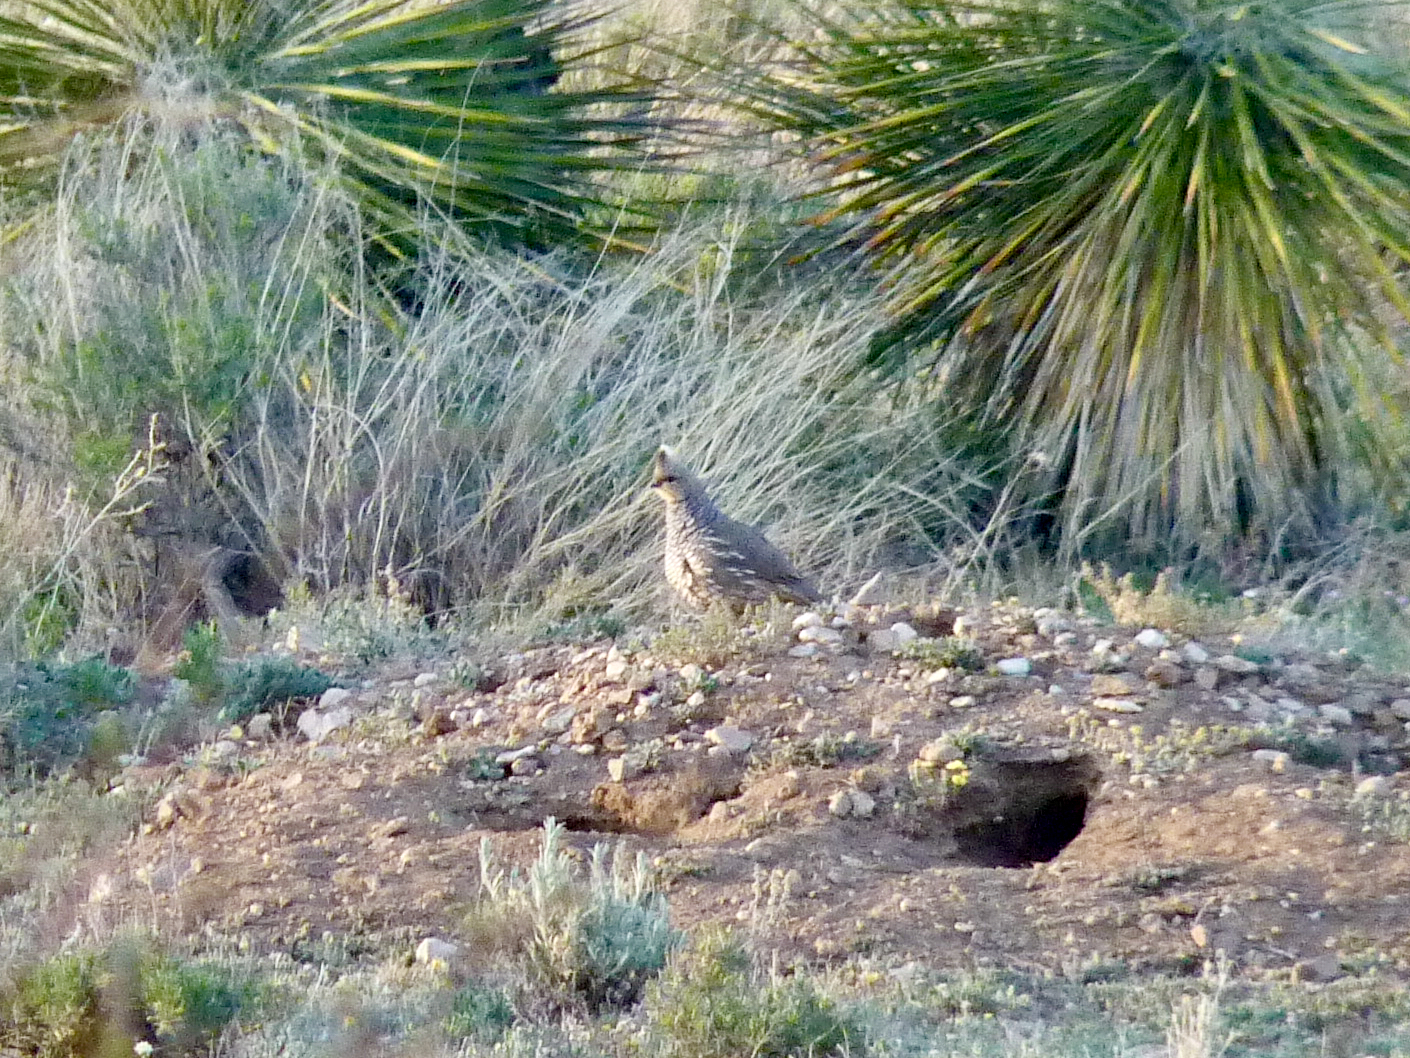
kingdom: Animalia
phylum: Chordata
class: Aves
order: Galliformes
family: Odontophoridae
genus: Callipepla
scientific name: Callipepla squamata
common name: Scaled quail
